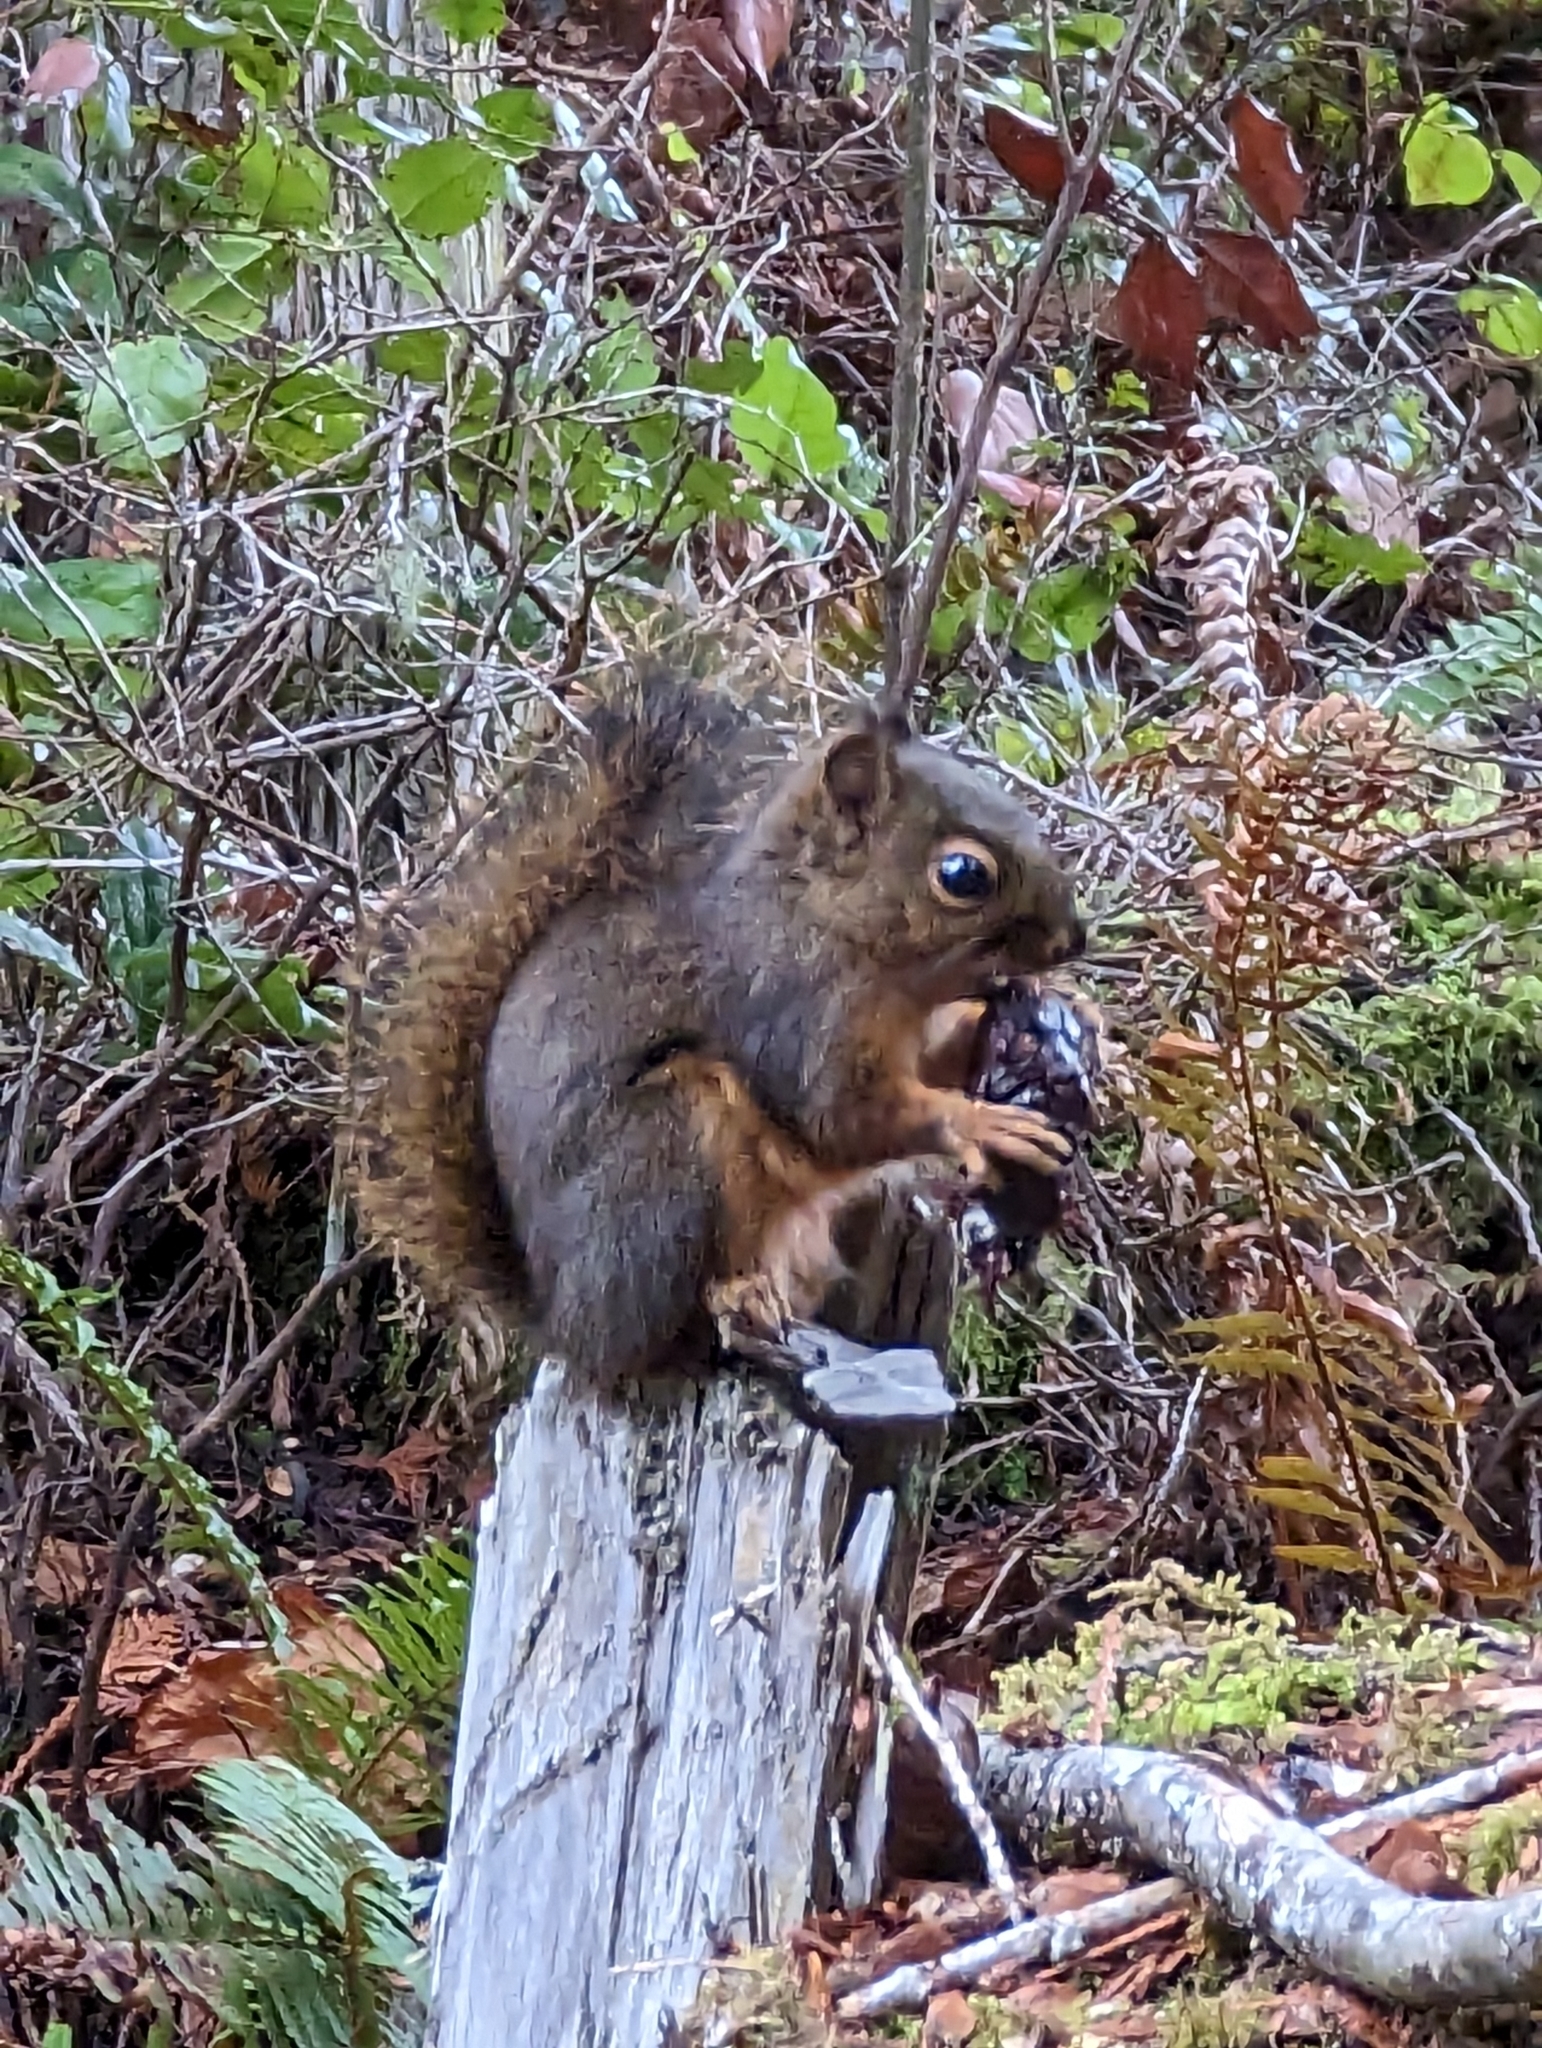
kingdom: Animalia
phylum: Chordata
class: Mammalia
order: Rodentia
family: Sciuridae
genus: Tamiasciurus
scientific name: Tamiasciurus douglasii
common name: Douglas's squirrel
